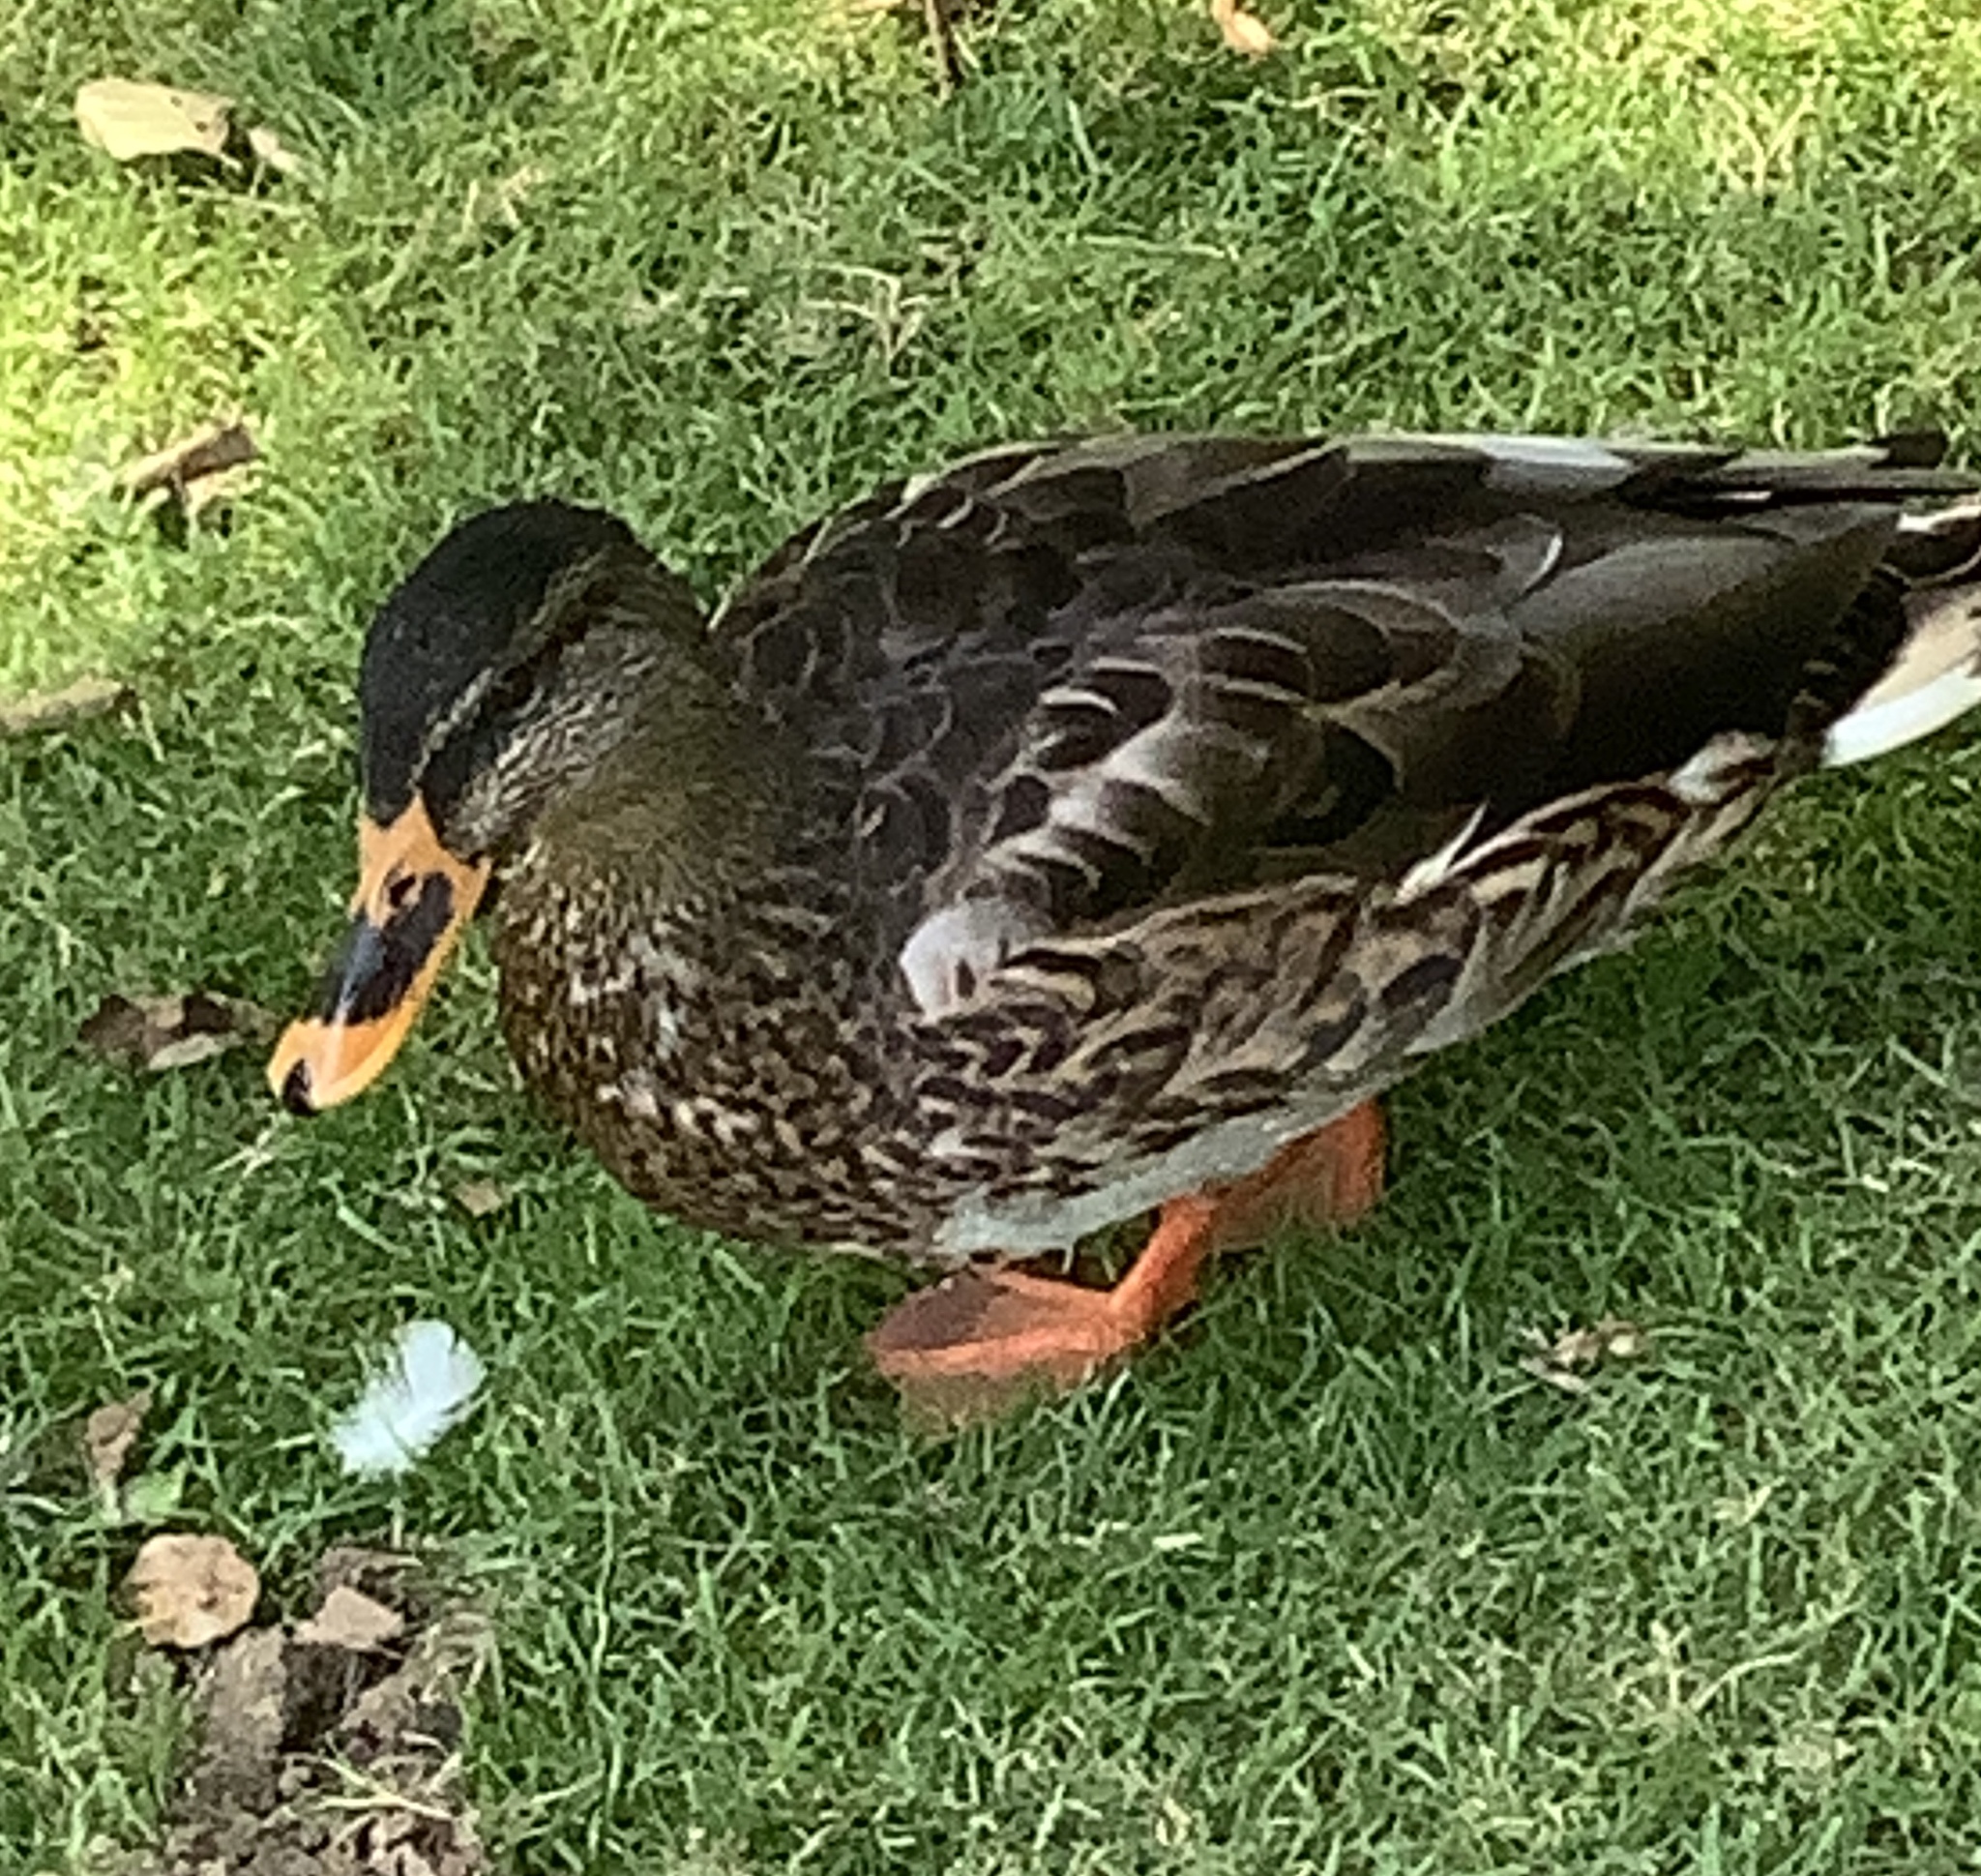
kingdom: Animalia
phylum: Chordata
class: Aves
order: Anseriformes
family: Anatidae
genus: Anas
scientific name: Anas platyrhynchos
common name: Mallard
